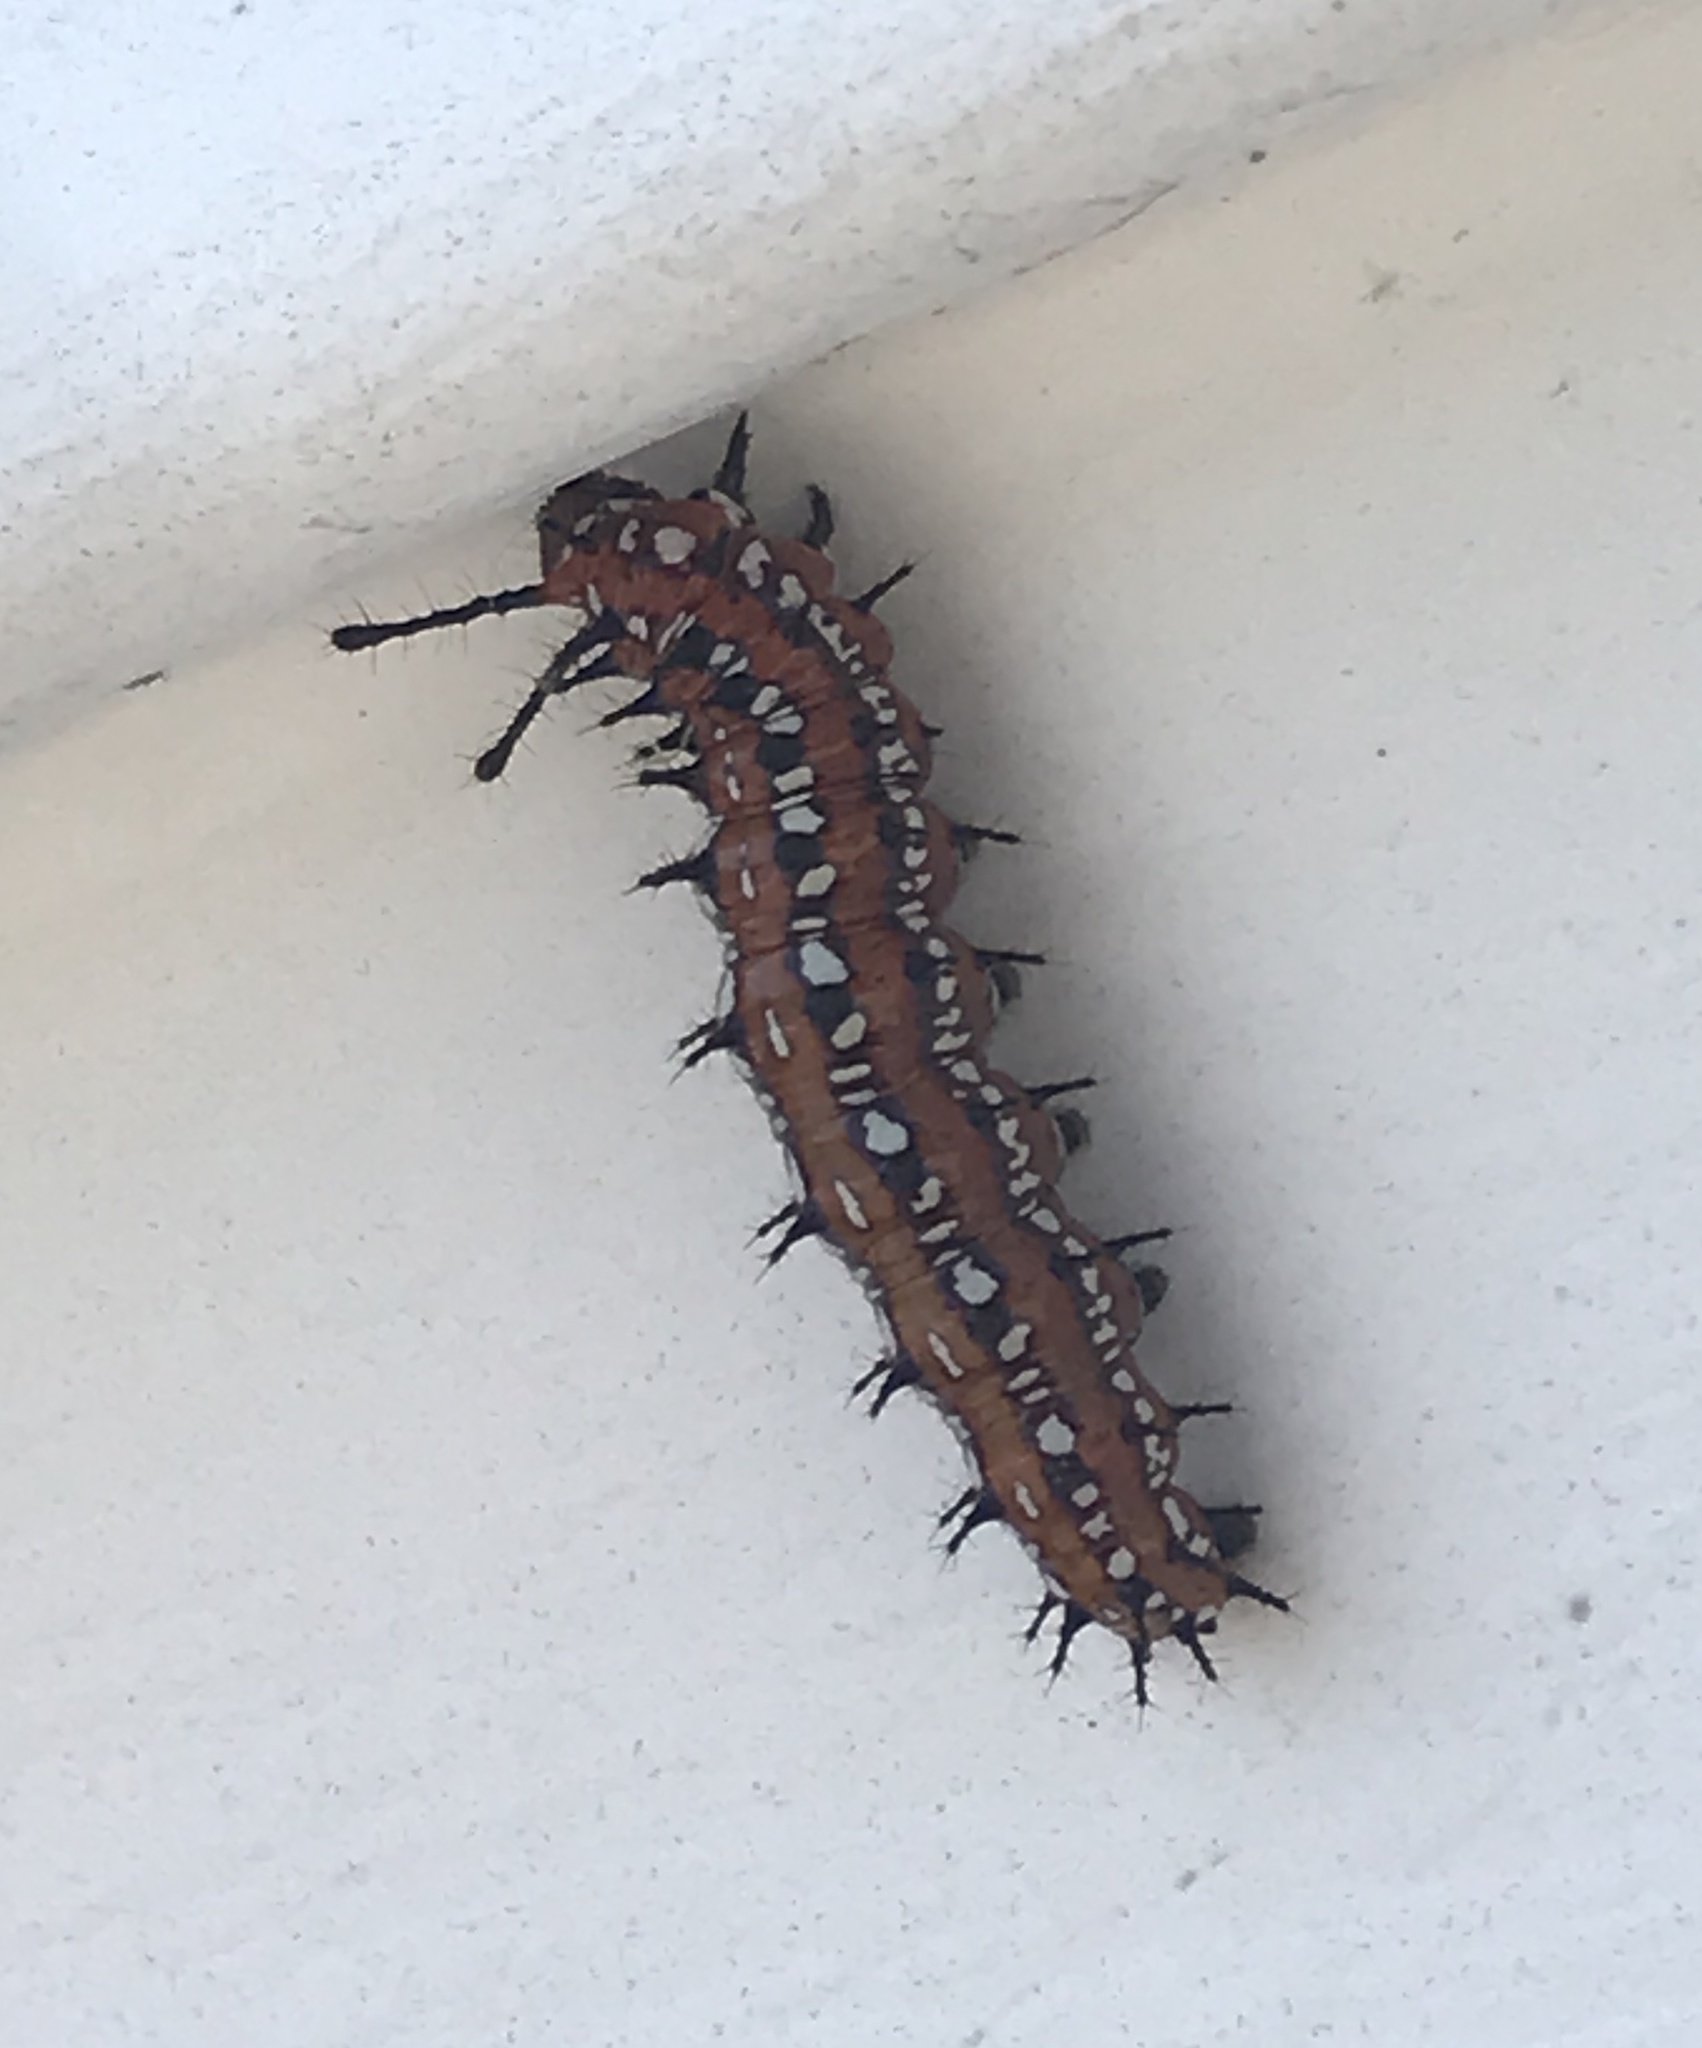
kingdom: Animalia
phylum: Arthropoda
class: Insecta
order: Lepidoptera
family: Nymphalidae
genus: Euptoieta
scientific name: Euptoieta claudia
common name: Variegated fritillary
